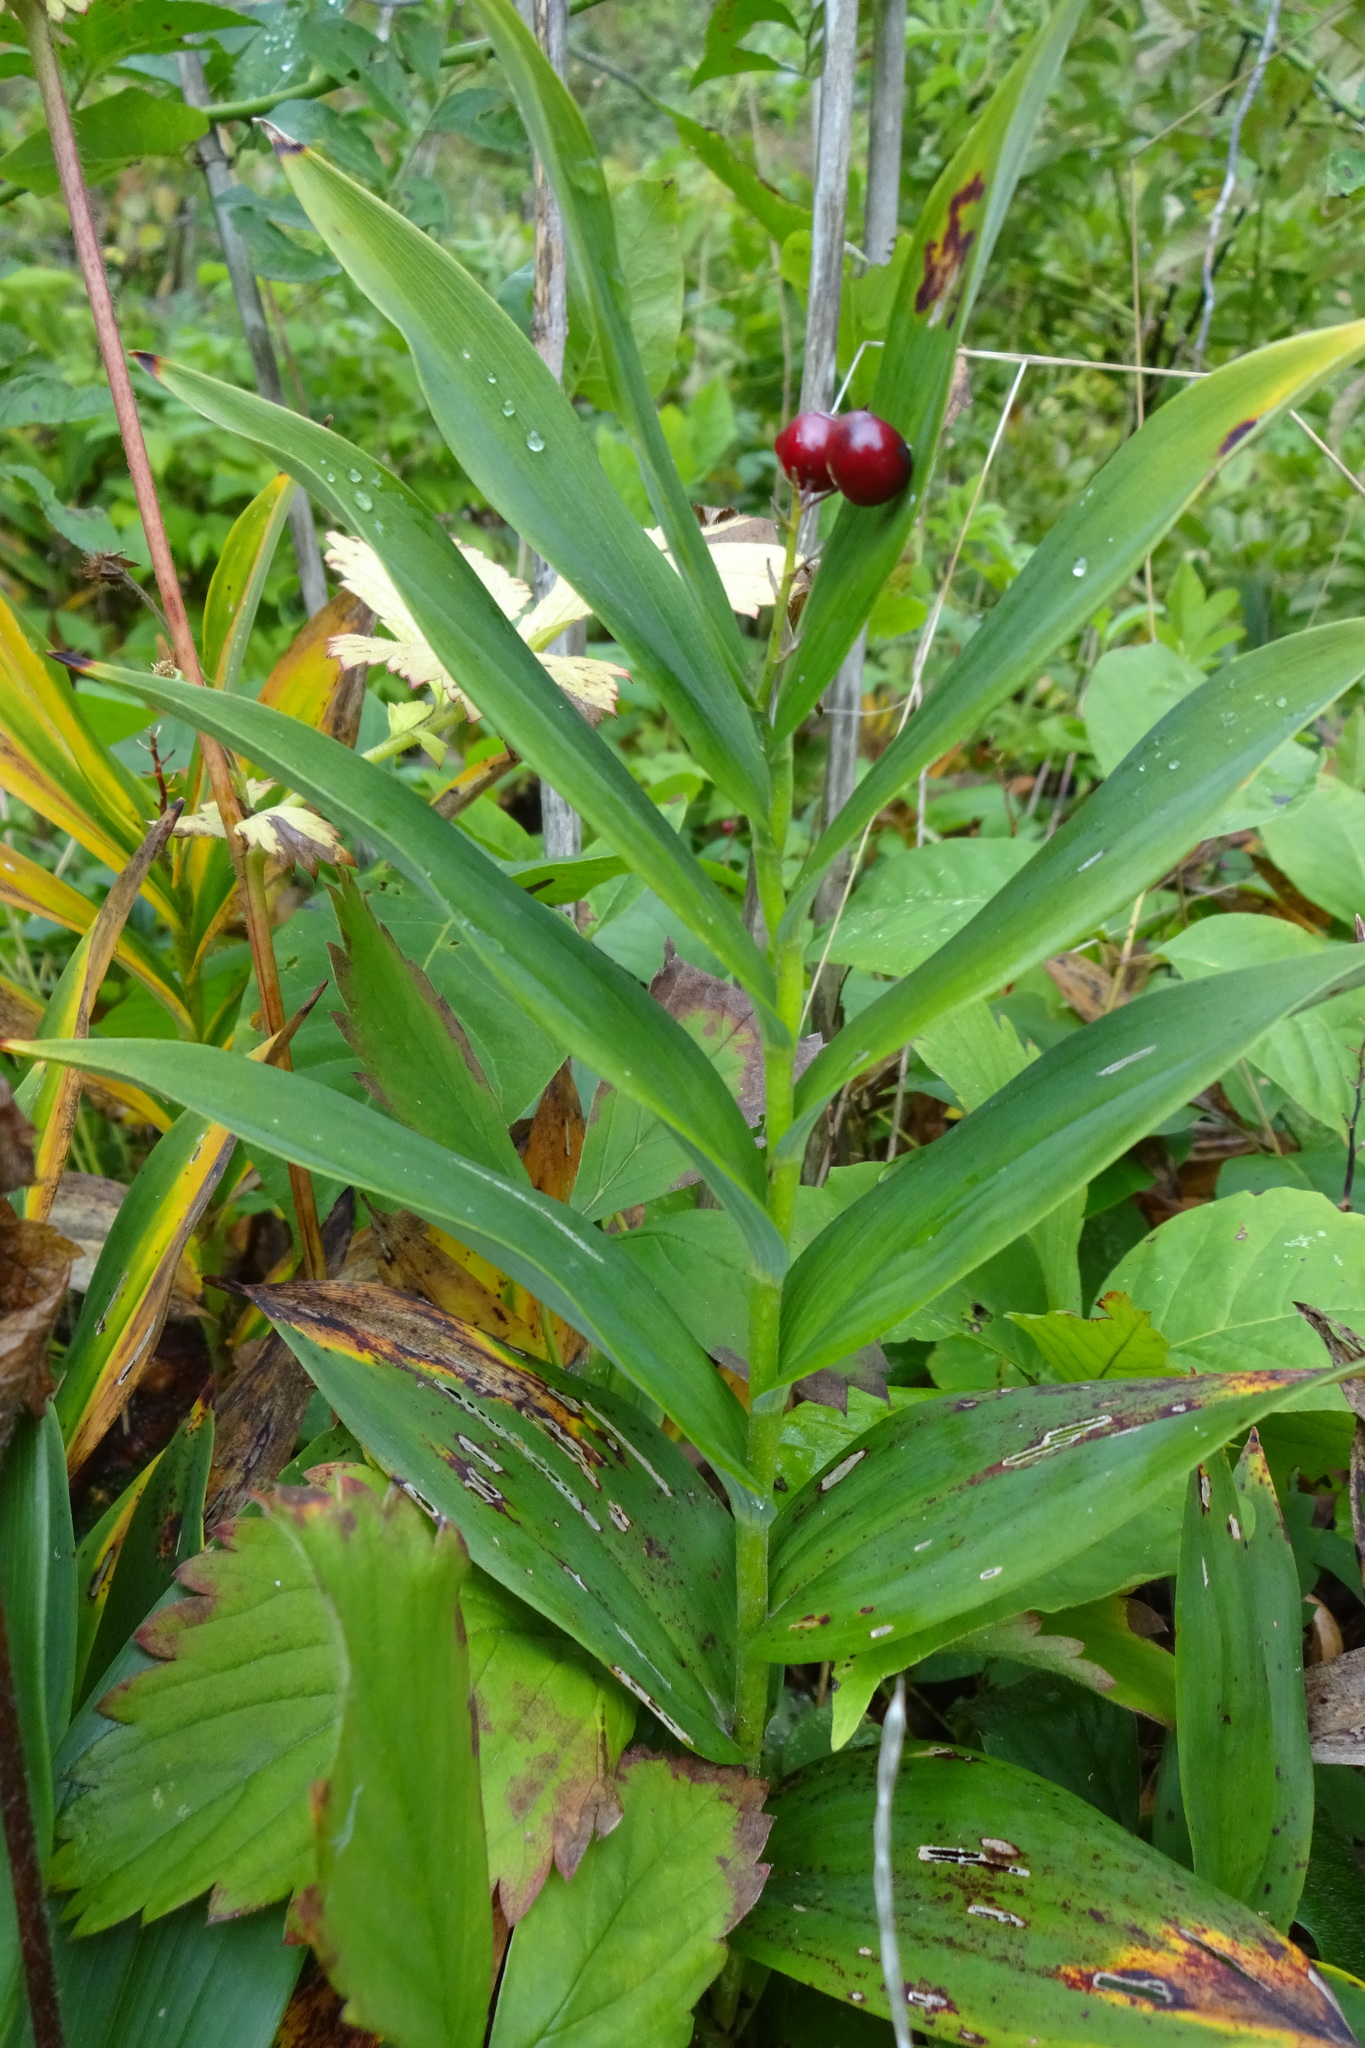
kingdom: Plantae
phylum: Tracheophyta
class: Liliopsida
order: Asparagales
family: Asparagaceae
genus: Maianthemum
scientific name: Maianthemum stellatum
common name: Little false solomon's seal
